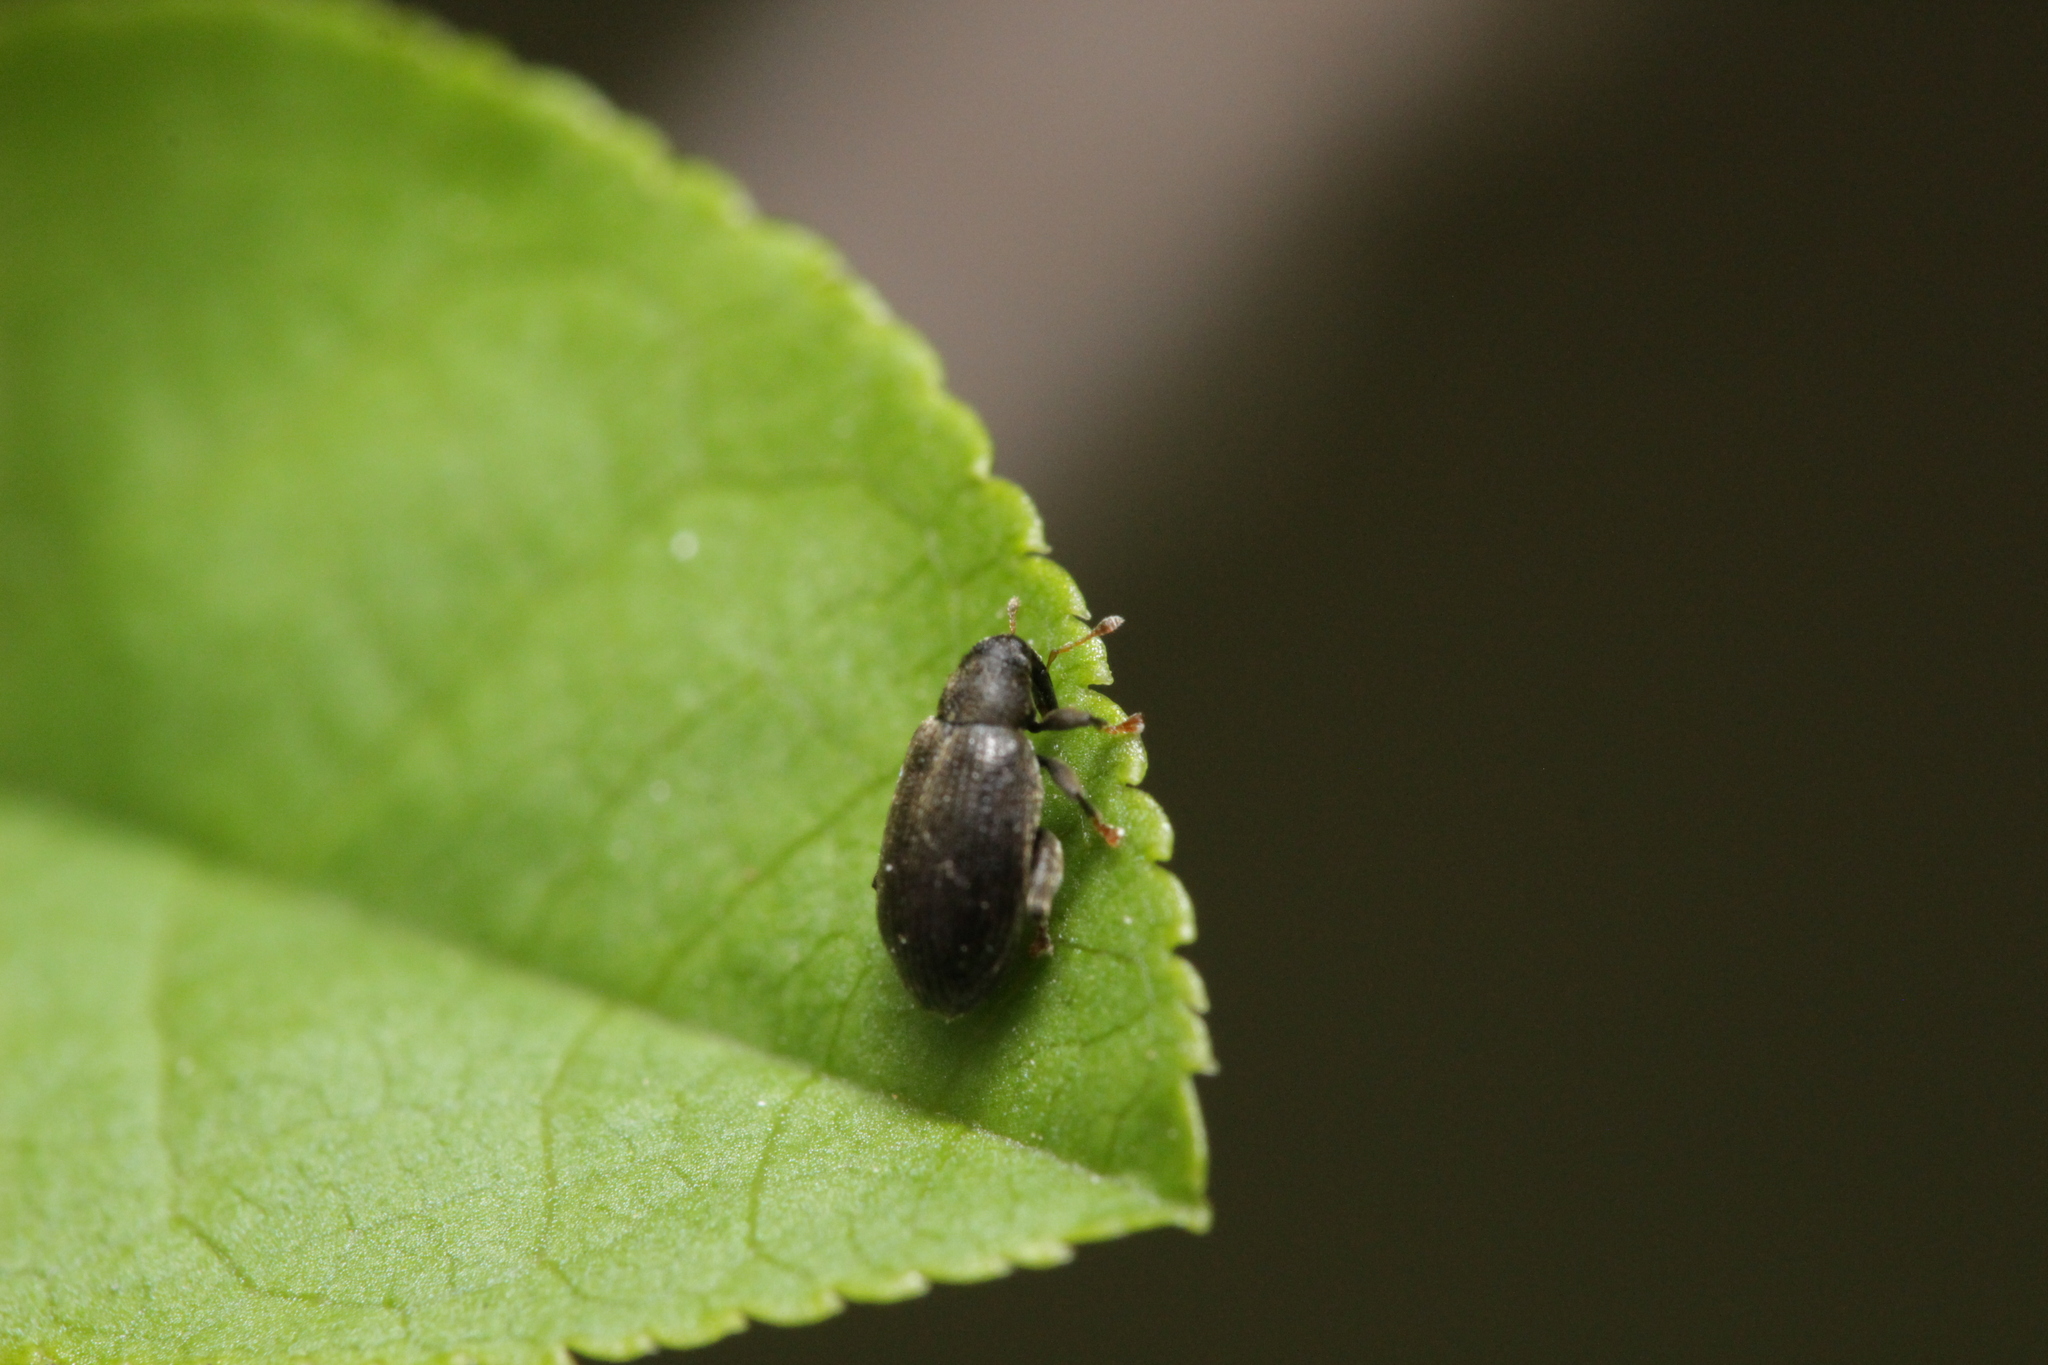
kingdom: Animalia
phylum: Arthropoda
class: Insecta
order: Coleoptera
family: Curculionidae
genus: Orchestes
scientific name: Orchestes fagi
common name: Beech leaf miner
